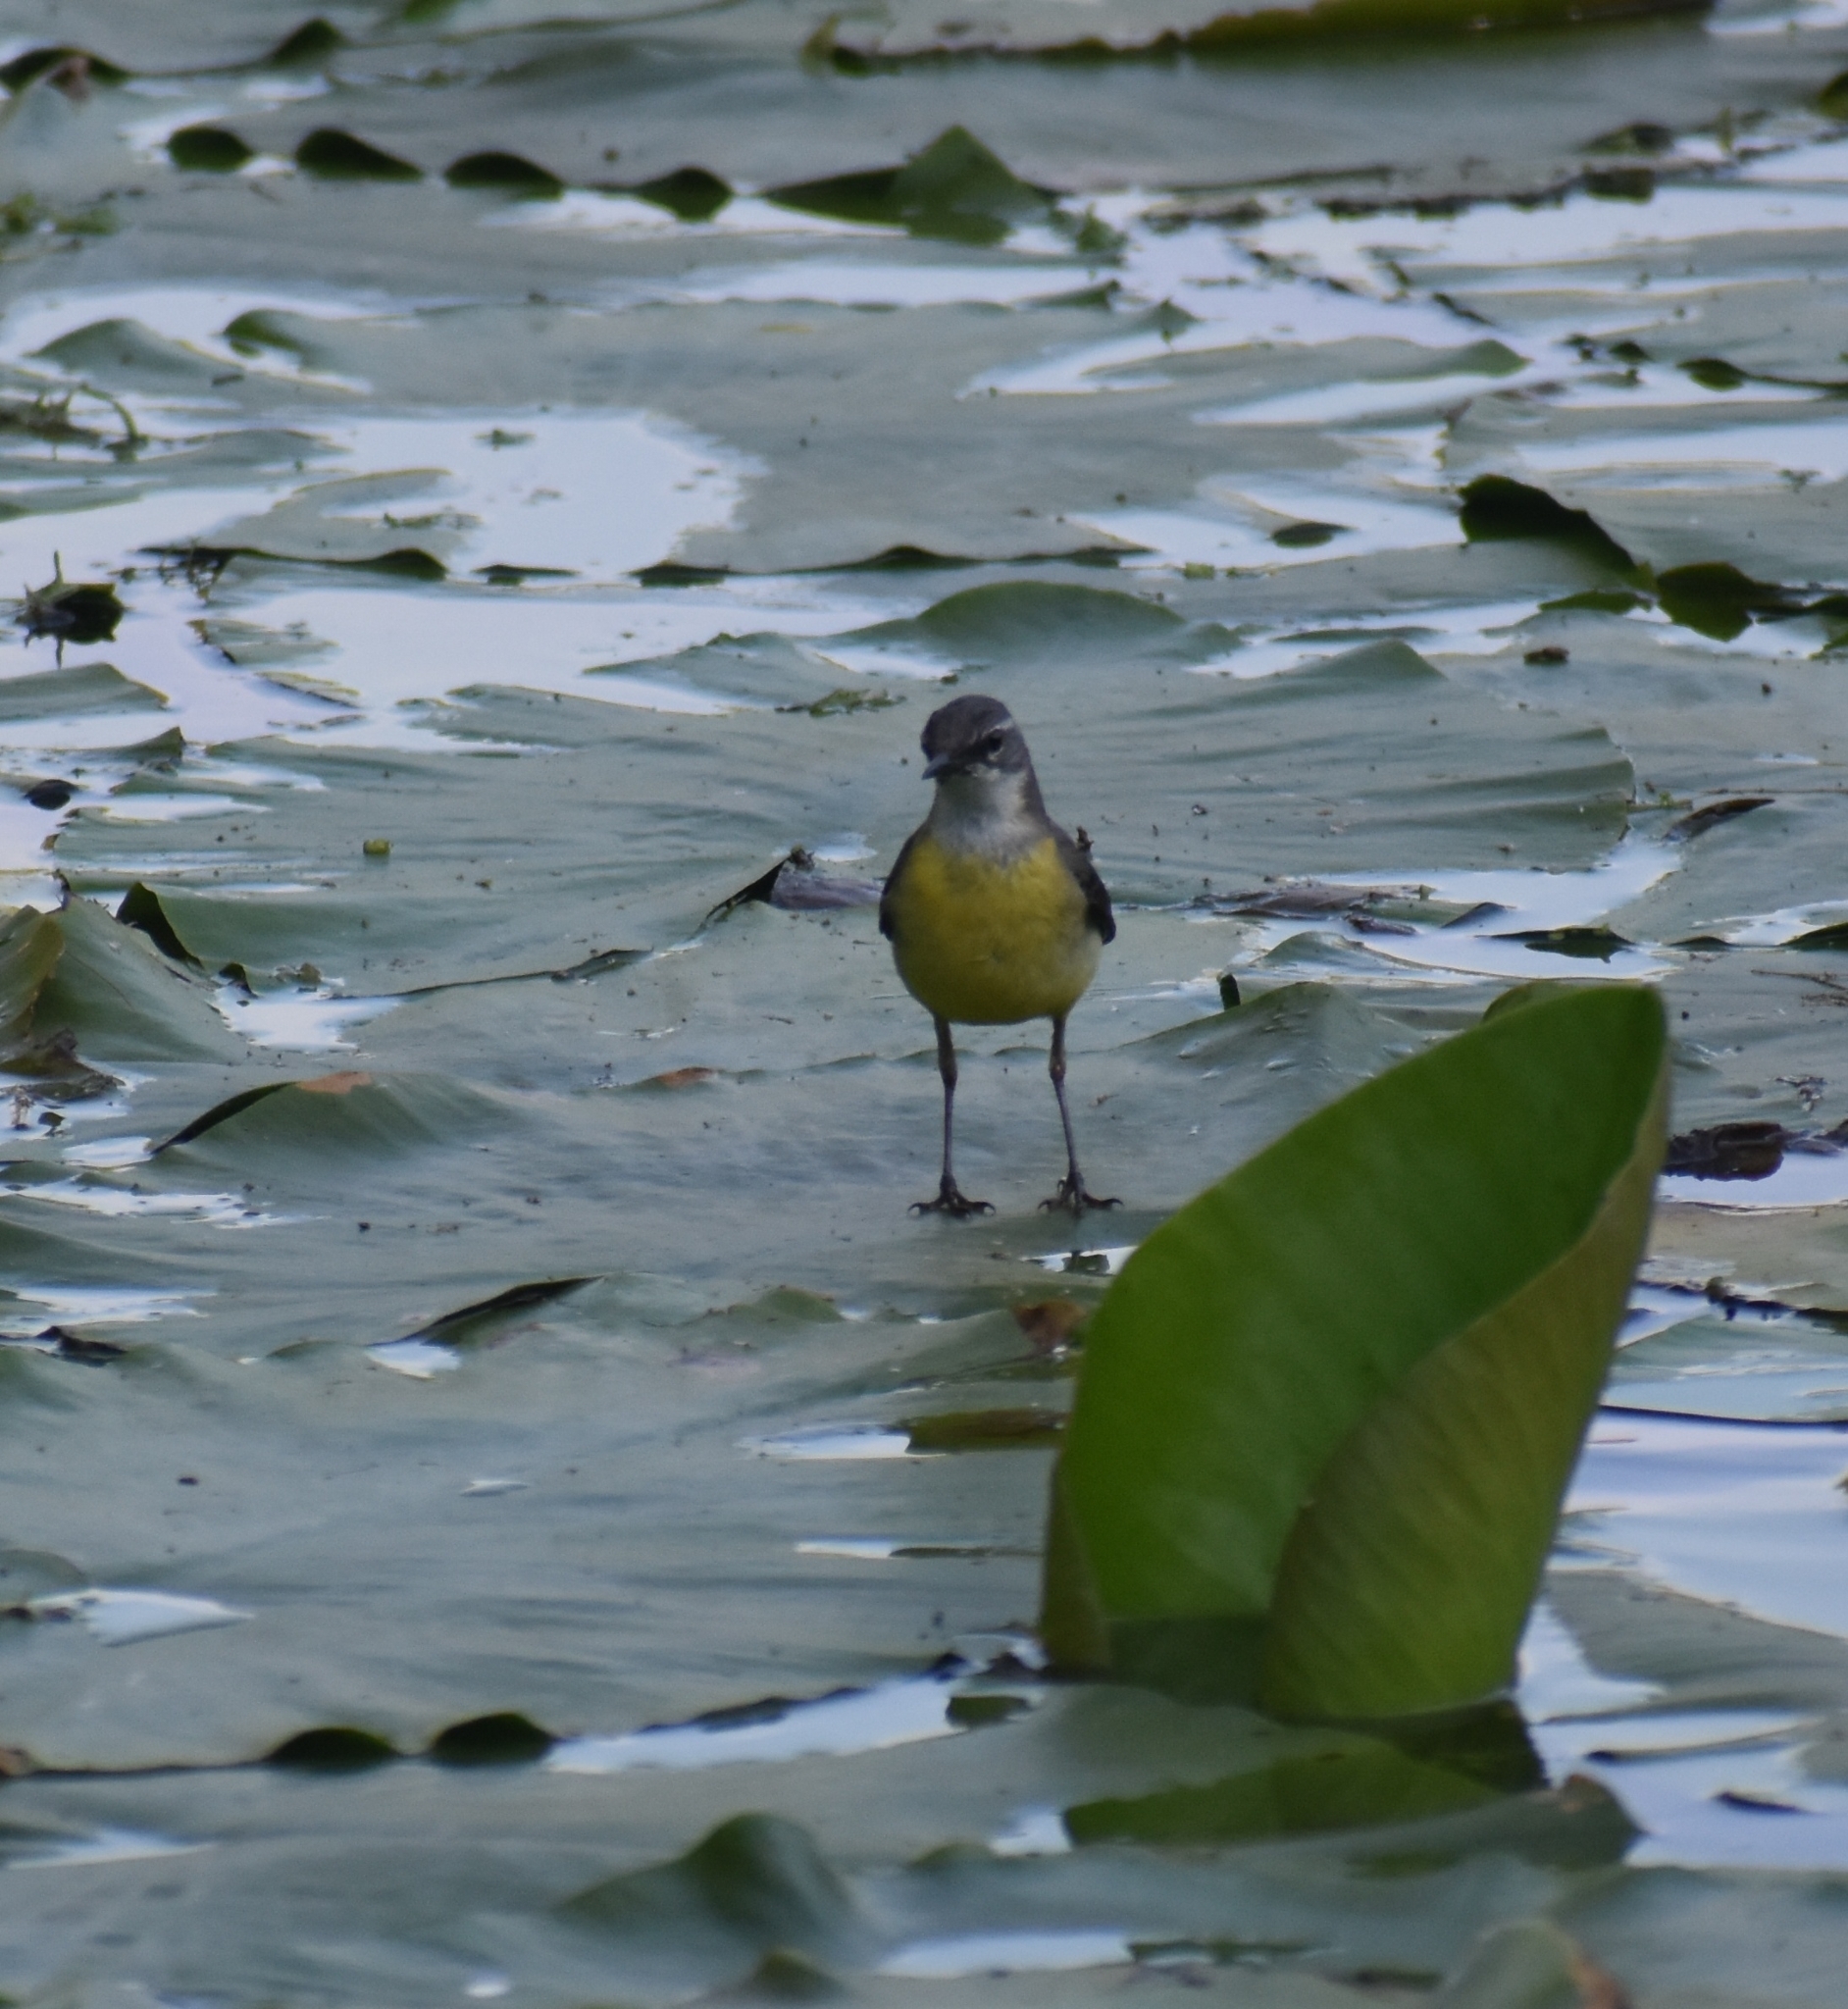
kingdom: Animalia
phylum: Chordata
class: Aves
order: Passeriformes
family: Motacillidae
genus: Motacilla
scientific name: Motacilla cinerea
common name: Grey wagtail
